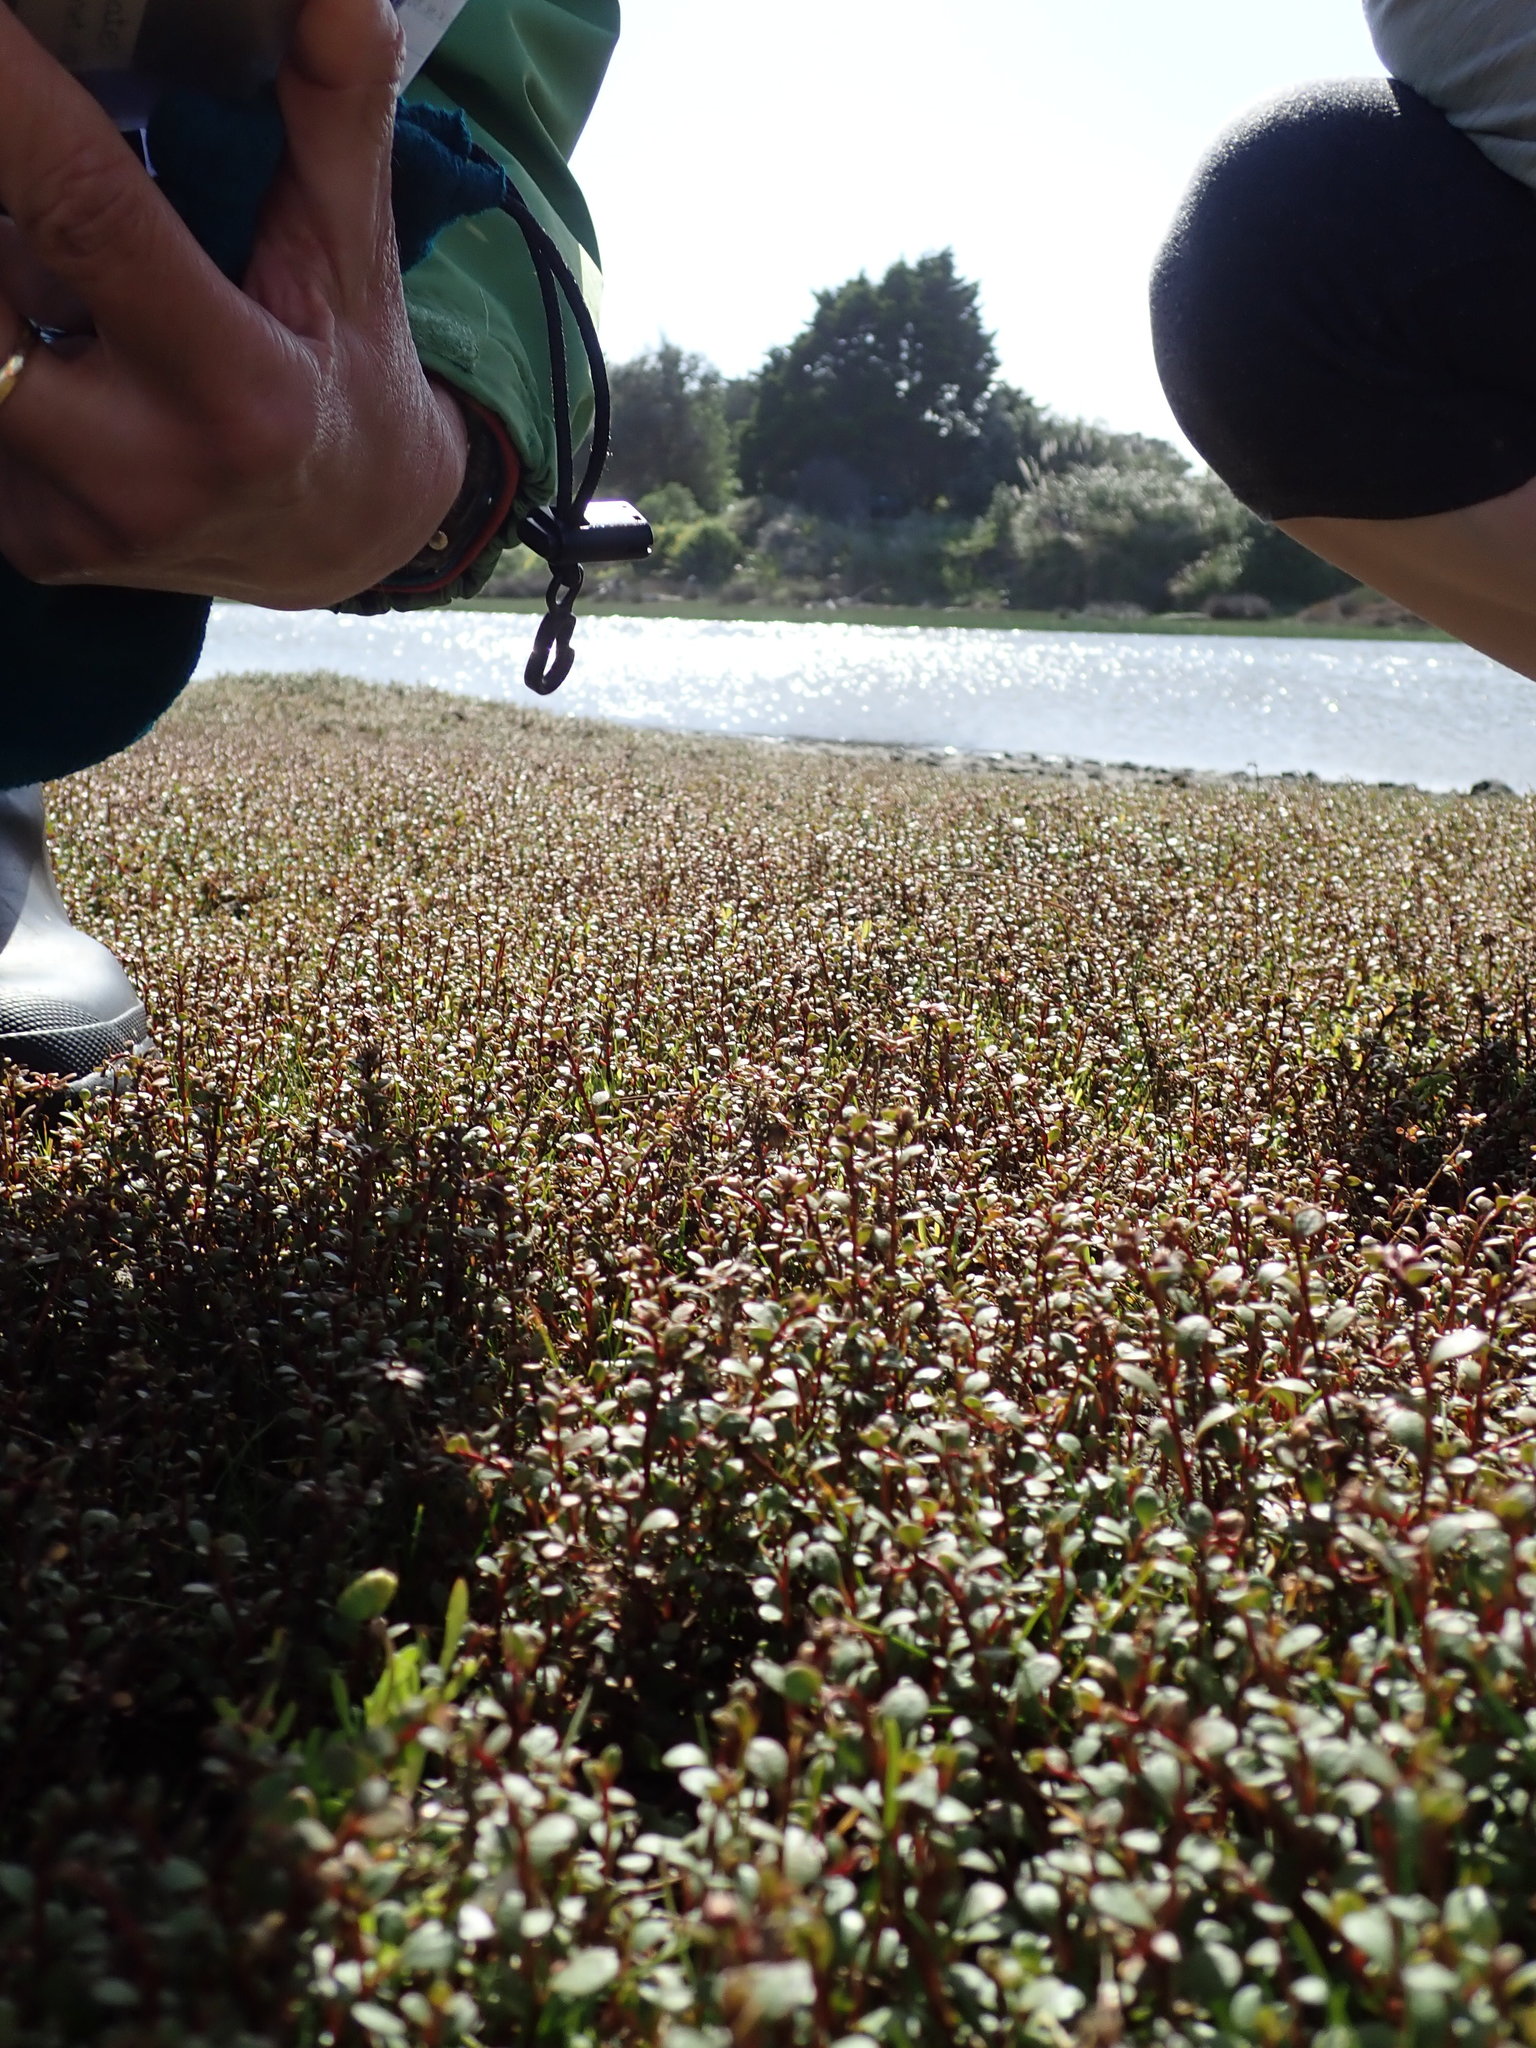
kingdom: Plantae
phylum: Tracheophyta
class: Magnoliopsida
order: Asterales
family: Asteraceae
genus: Cotula
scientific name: Cotula coronopifolia
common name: Buttonweed
